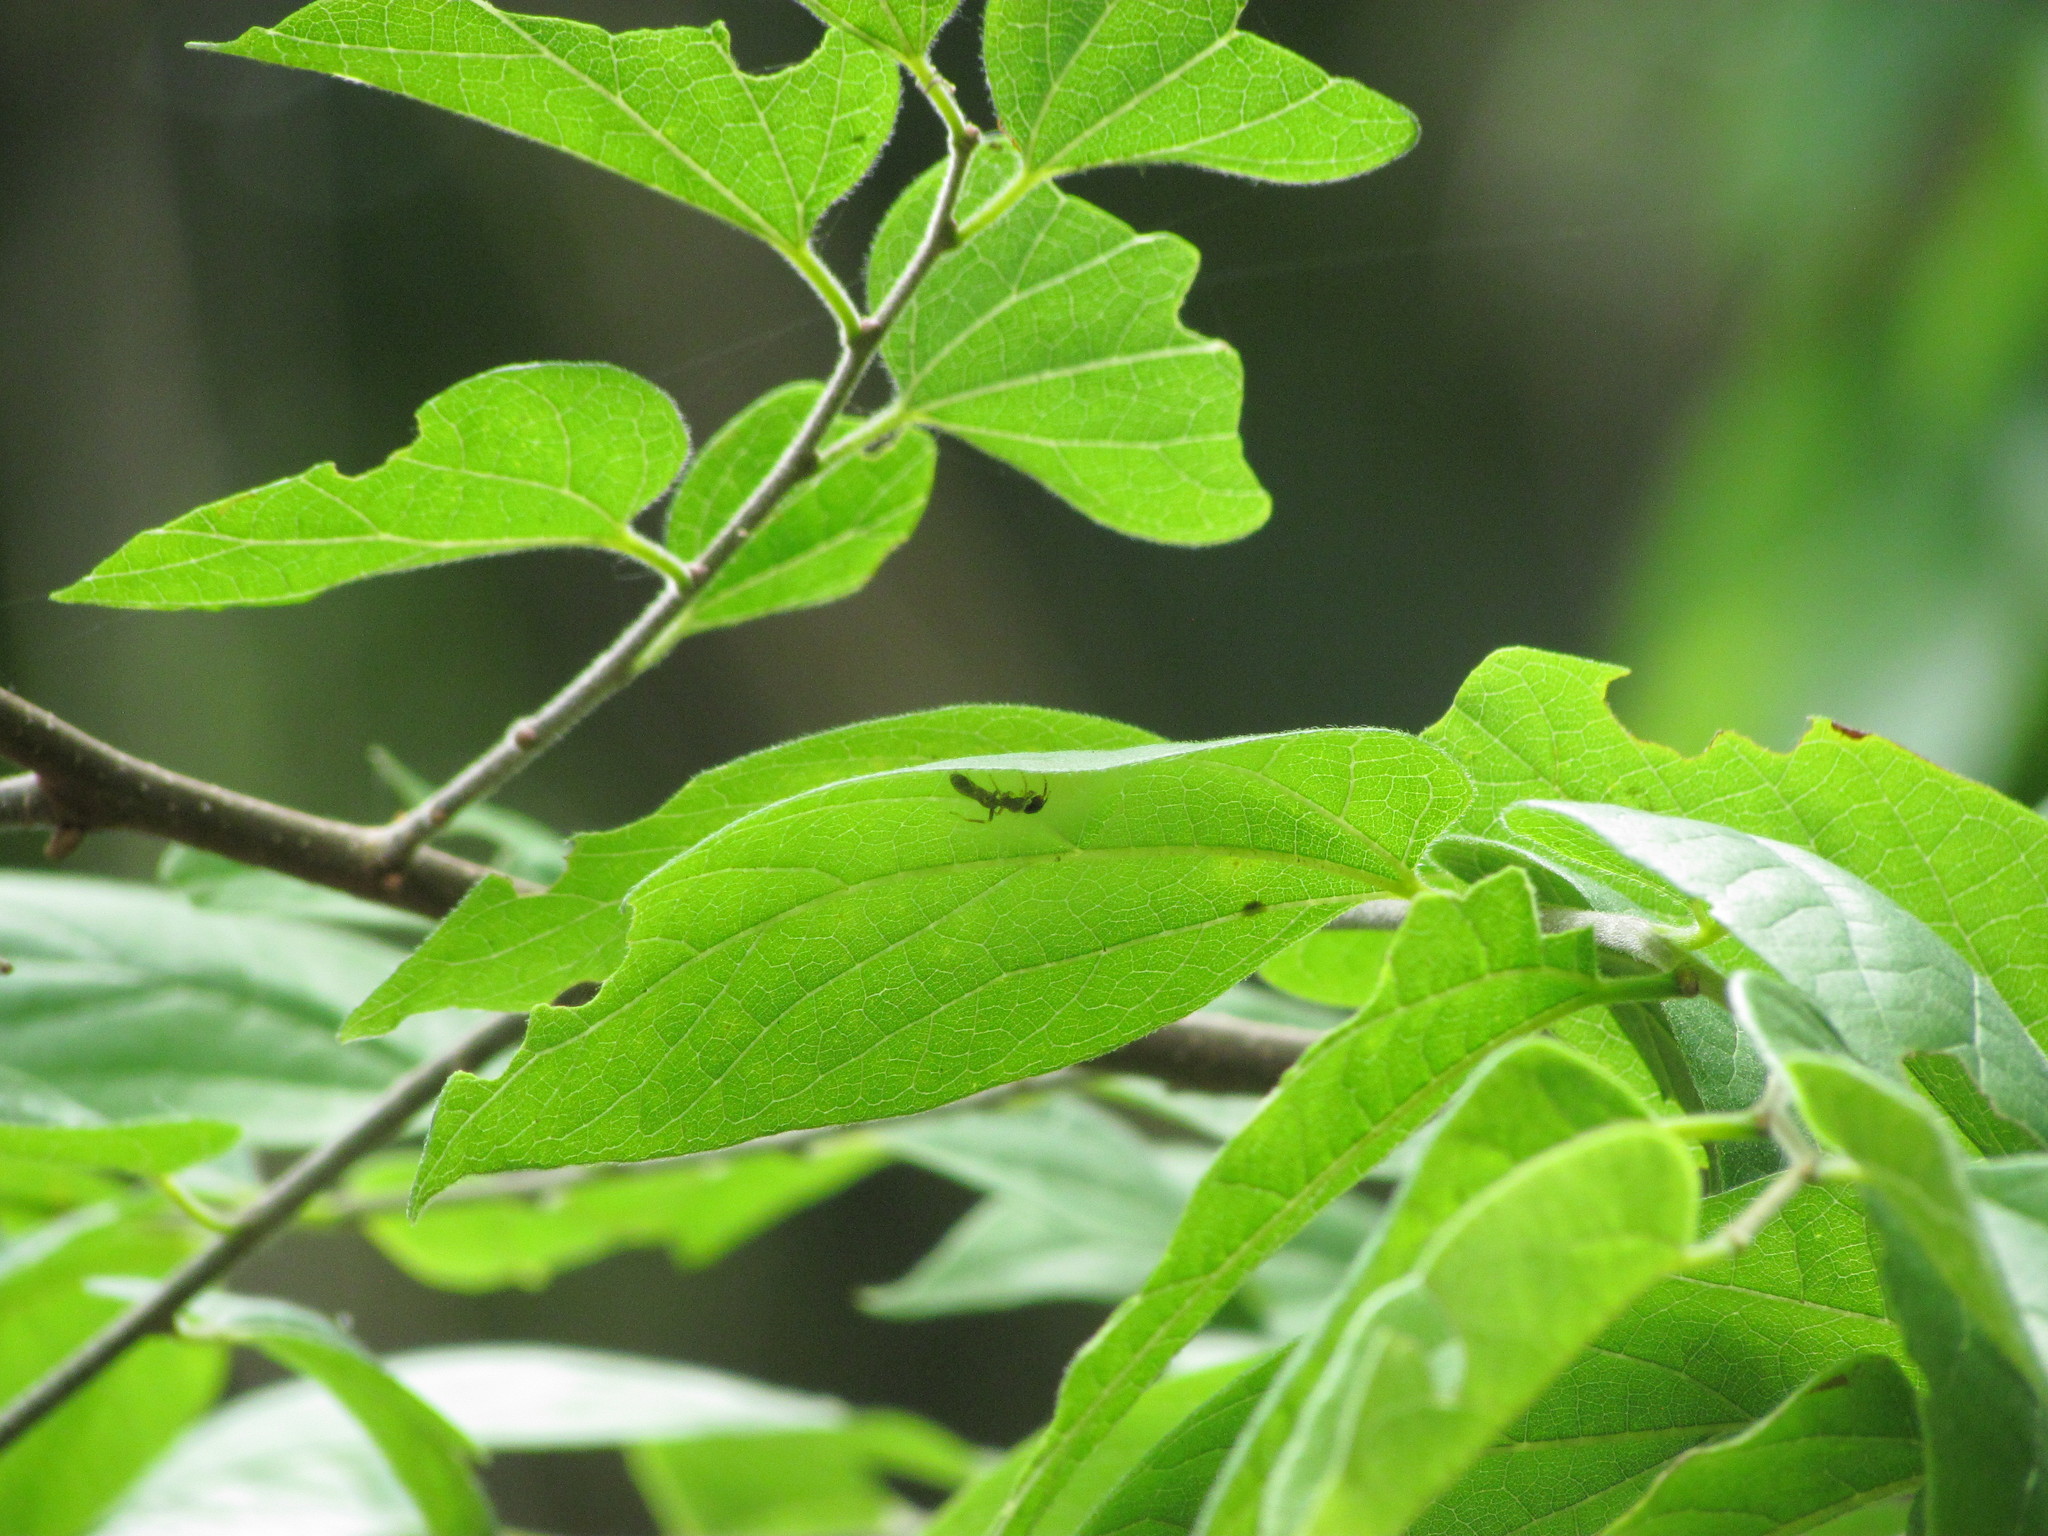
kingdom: Animalia
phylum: Arthropoda
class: Arachnida
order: Araneae
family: Salticidae
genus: Synemosyna
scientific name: Synemosyna aurantiaca
